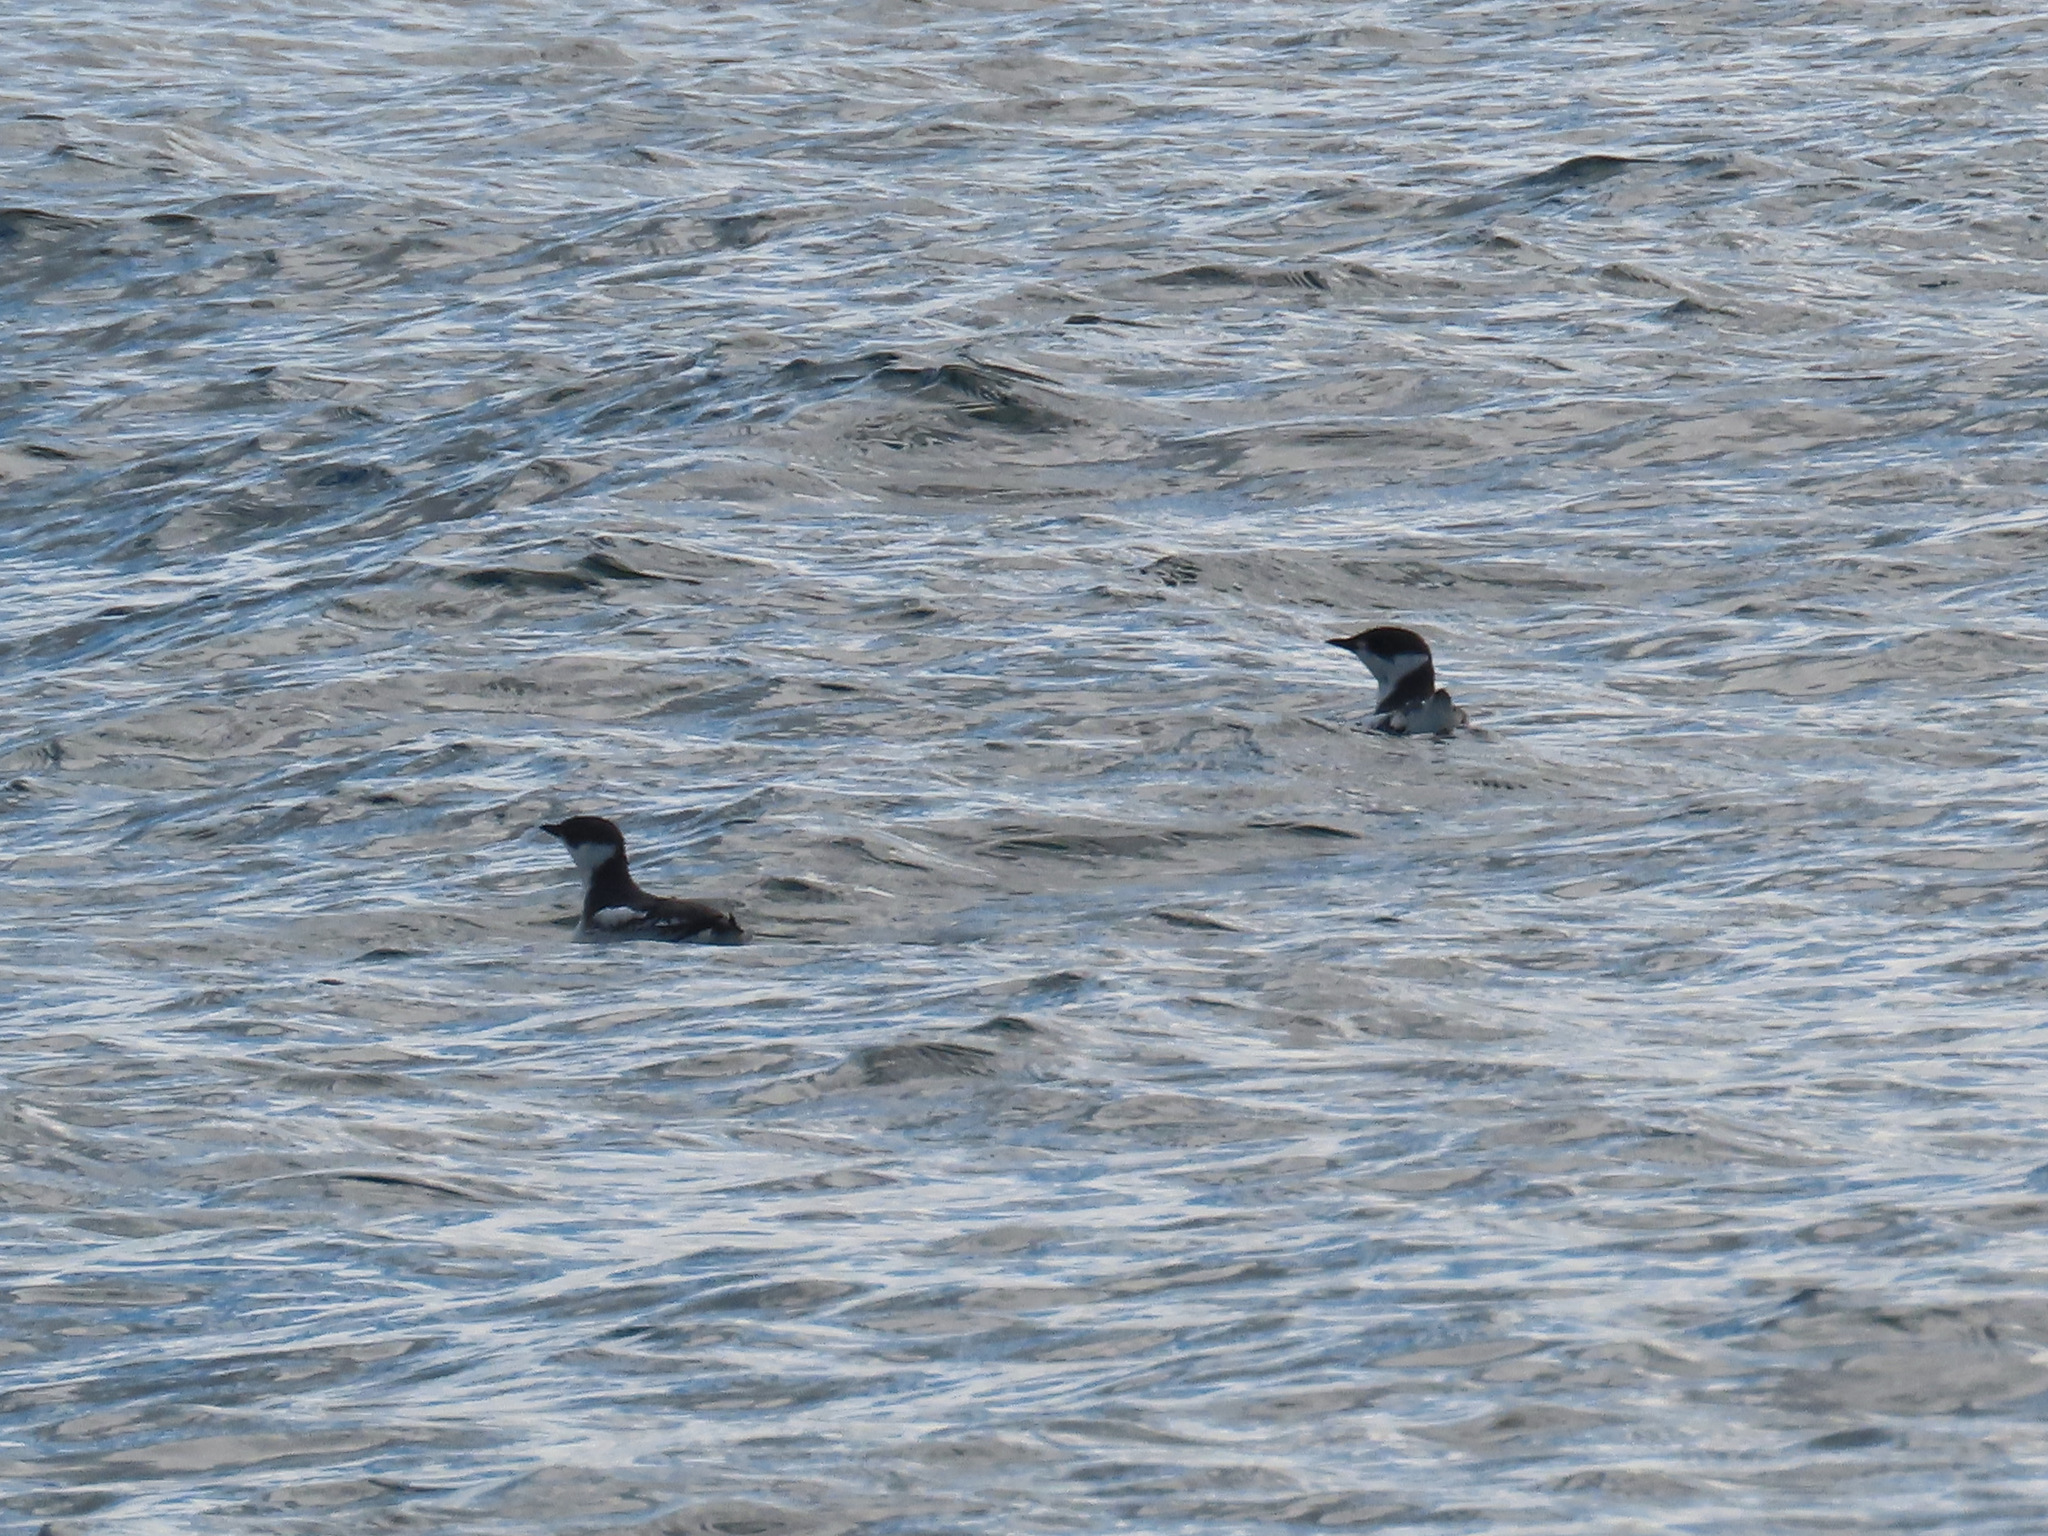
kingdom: Animalia
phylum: Chordata
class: Aves
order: Charadriiformes
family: Alcidae
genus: Brachyramphus
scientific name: Brachyramphus marmoratus
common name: Marbled murrelet
